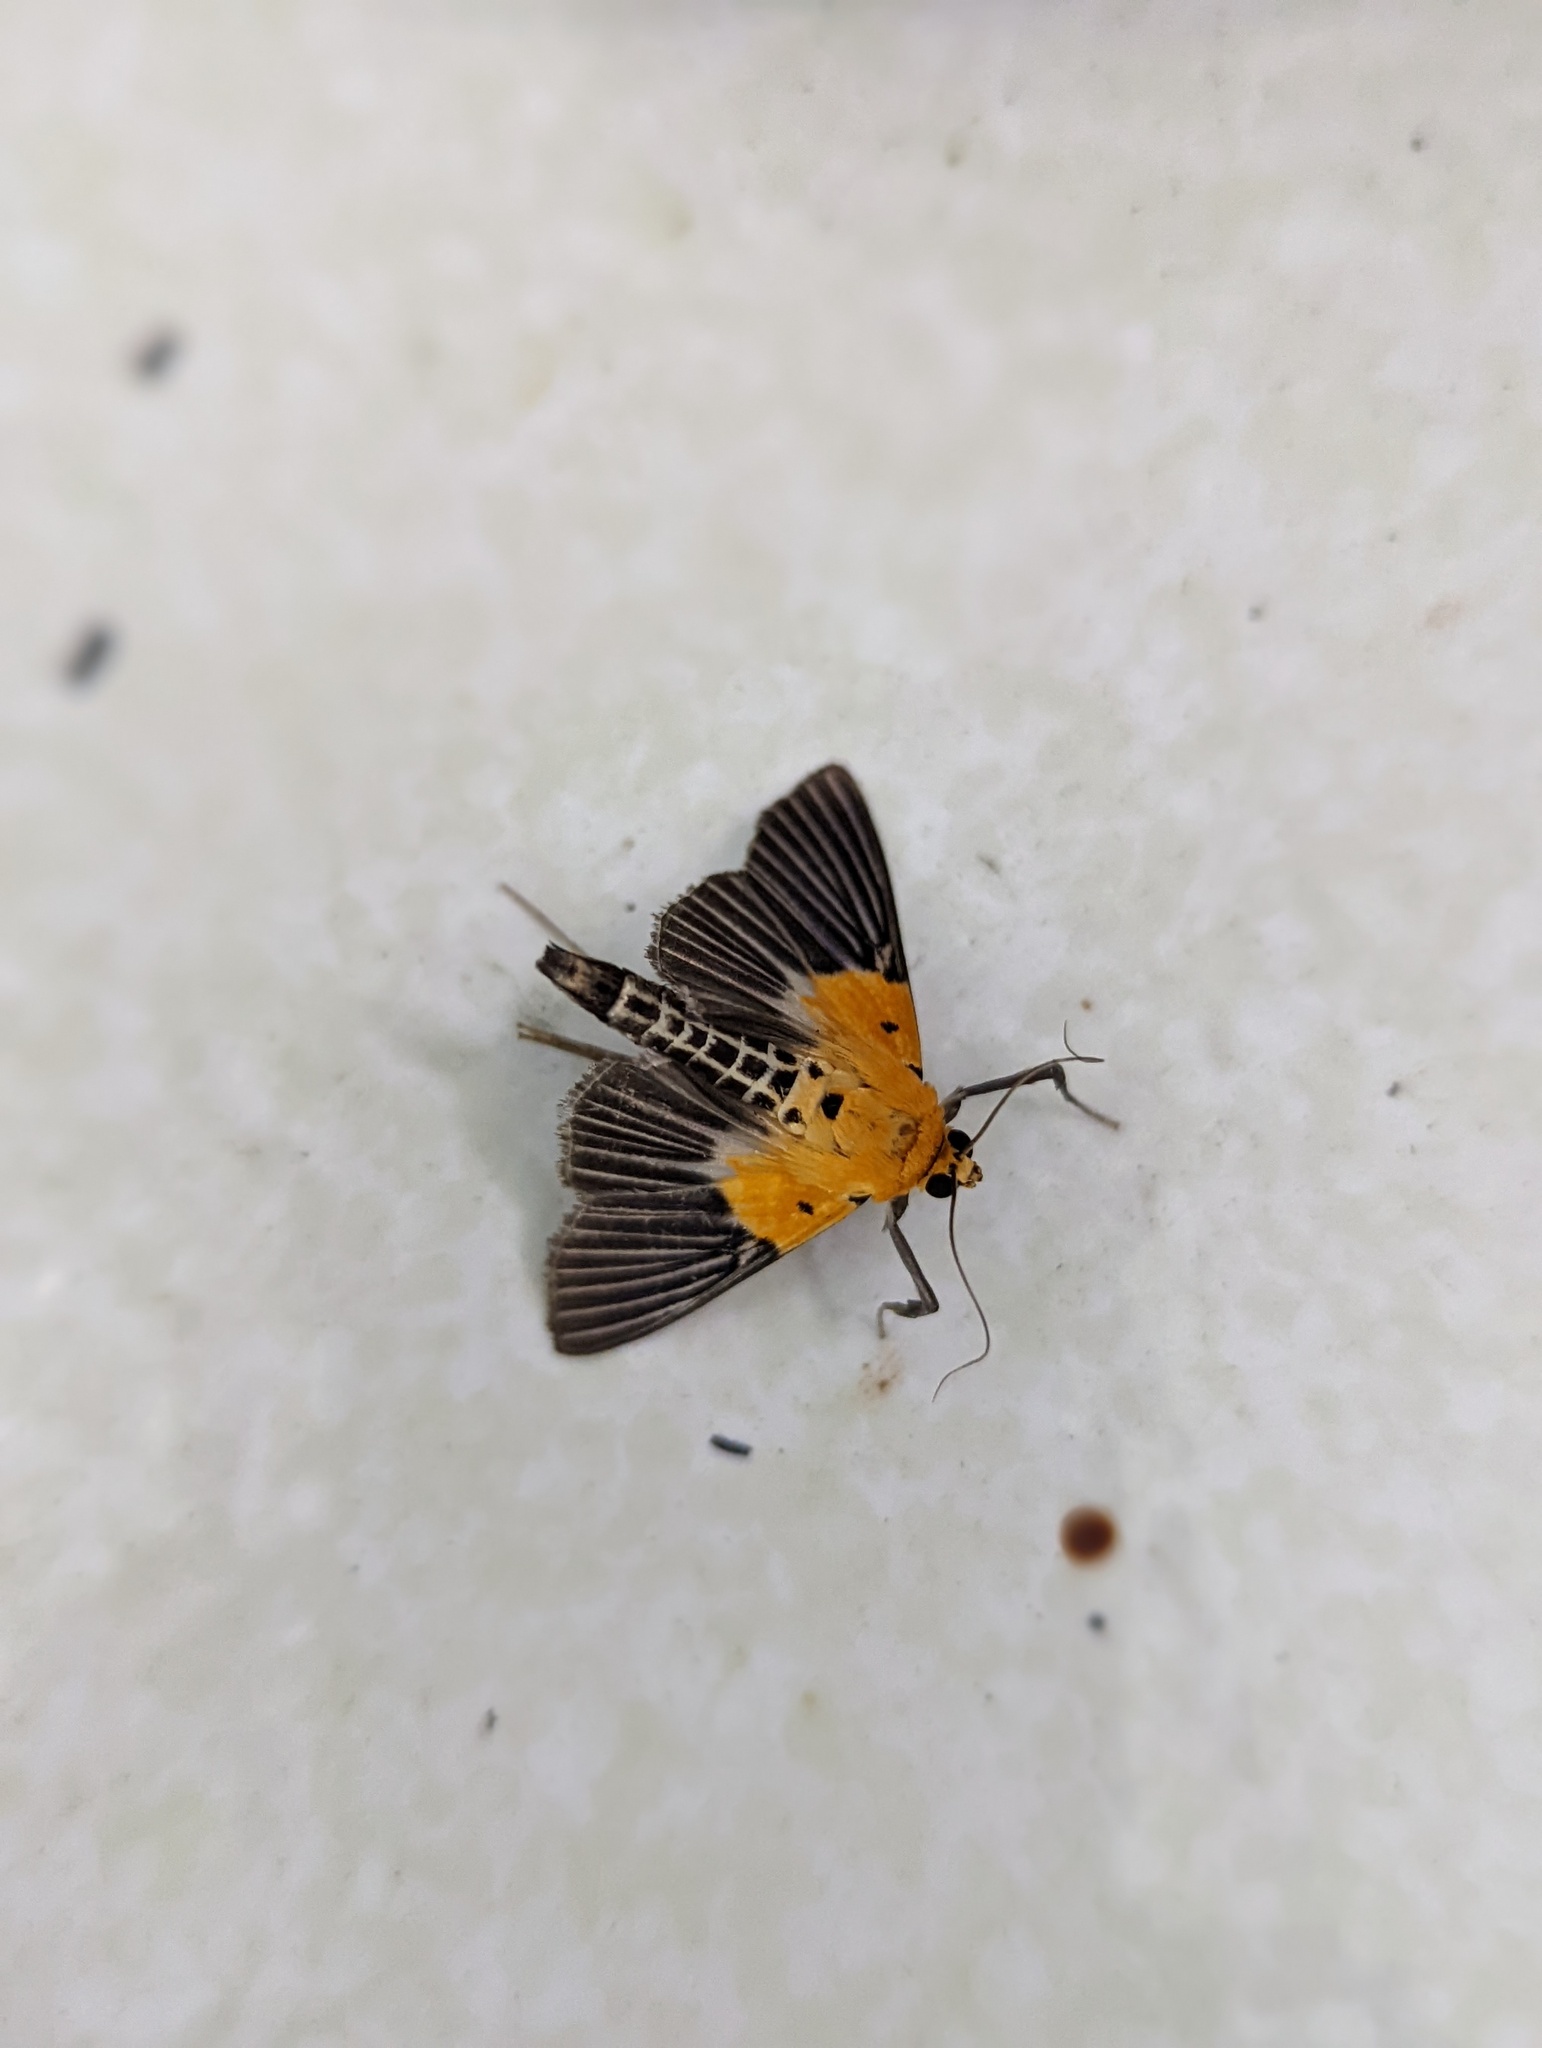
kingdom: Animalia
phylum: Arthropoda
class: Insecta
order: Lepidoptera
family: Crambidae
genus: Nevrina
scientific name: Nevrina procopia
